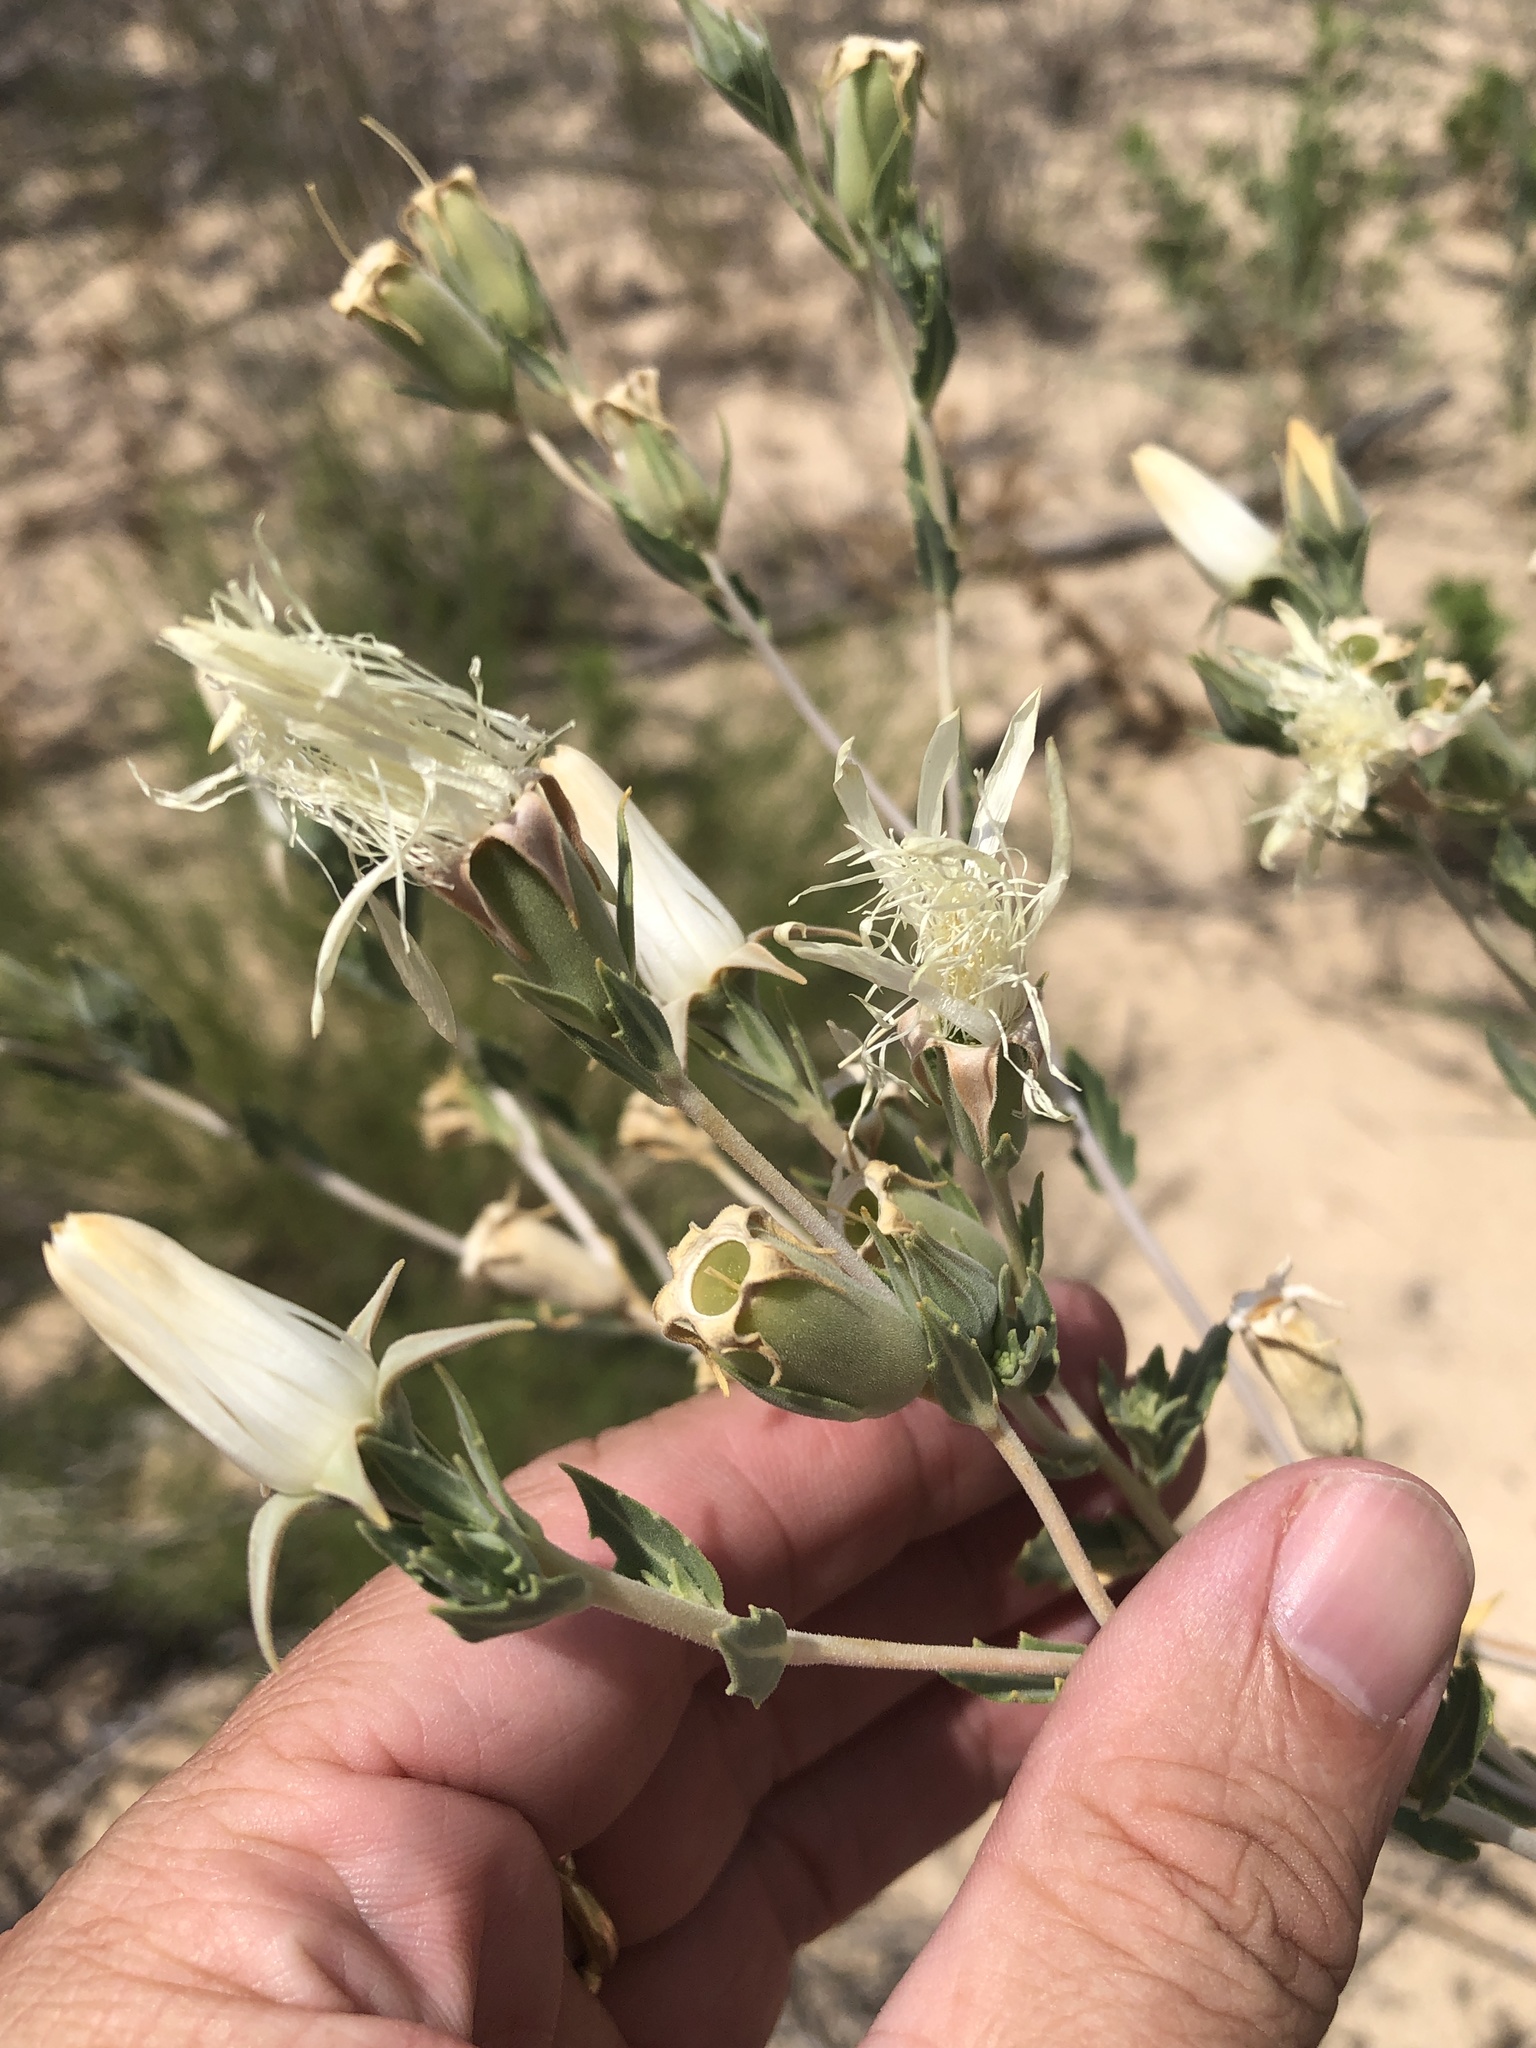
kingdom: Plantae
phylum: Tracheophyta
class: Magnoliopsida
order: Cornales
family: Loasaceae
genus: Mentzelia
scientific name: Mentzelia strictissima
